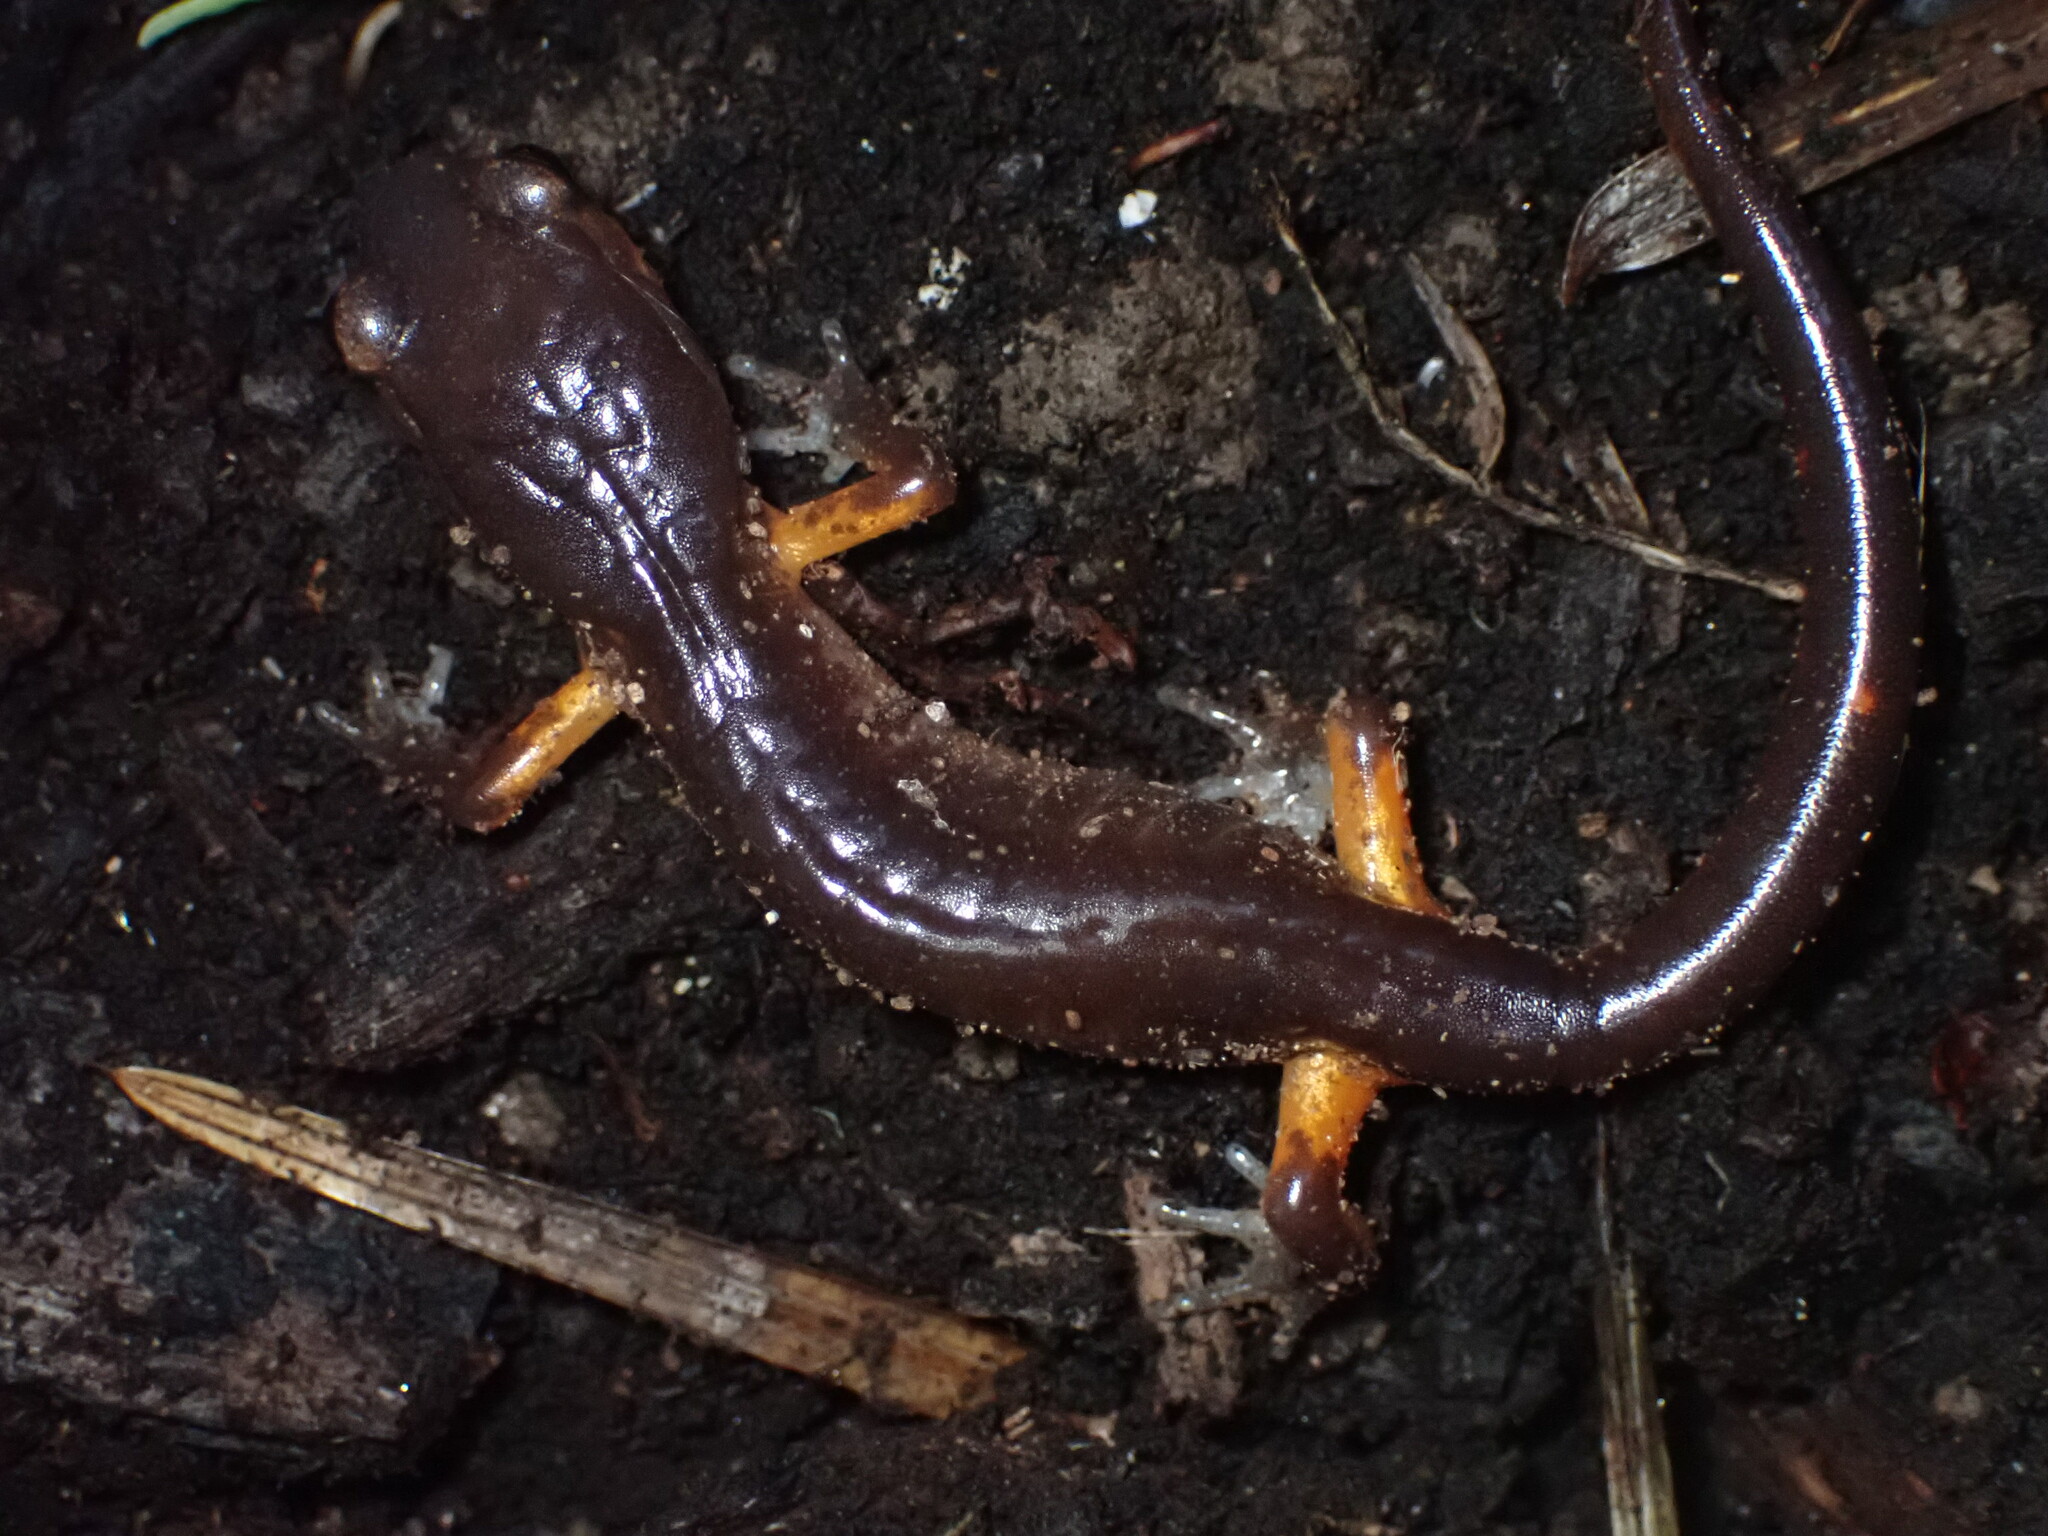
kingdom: Animalia
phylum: Chordata
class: Amphibia
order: Caudata
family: Plethodontidae
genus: Ensatina
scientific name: Ensatina eschscholtzii
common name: Ensatina
